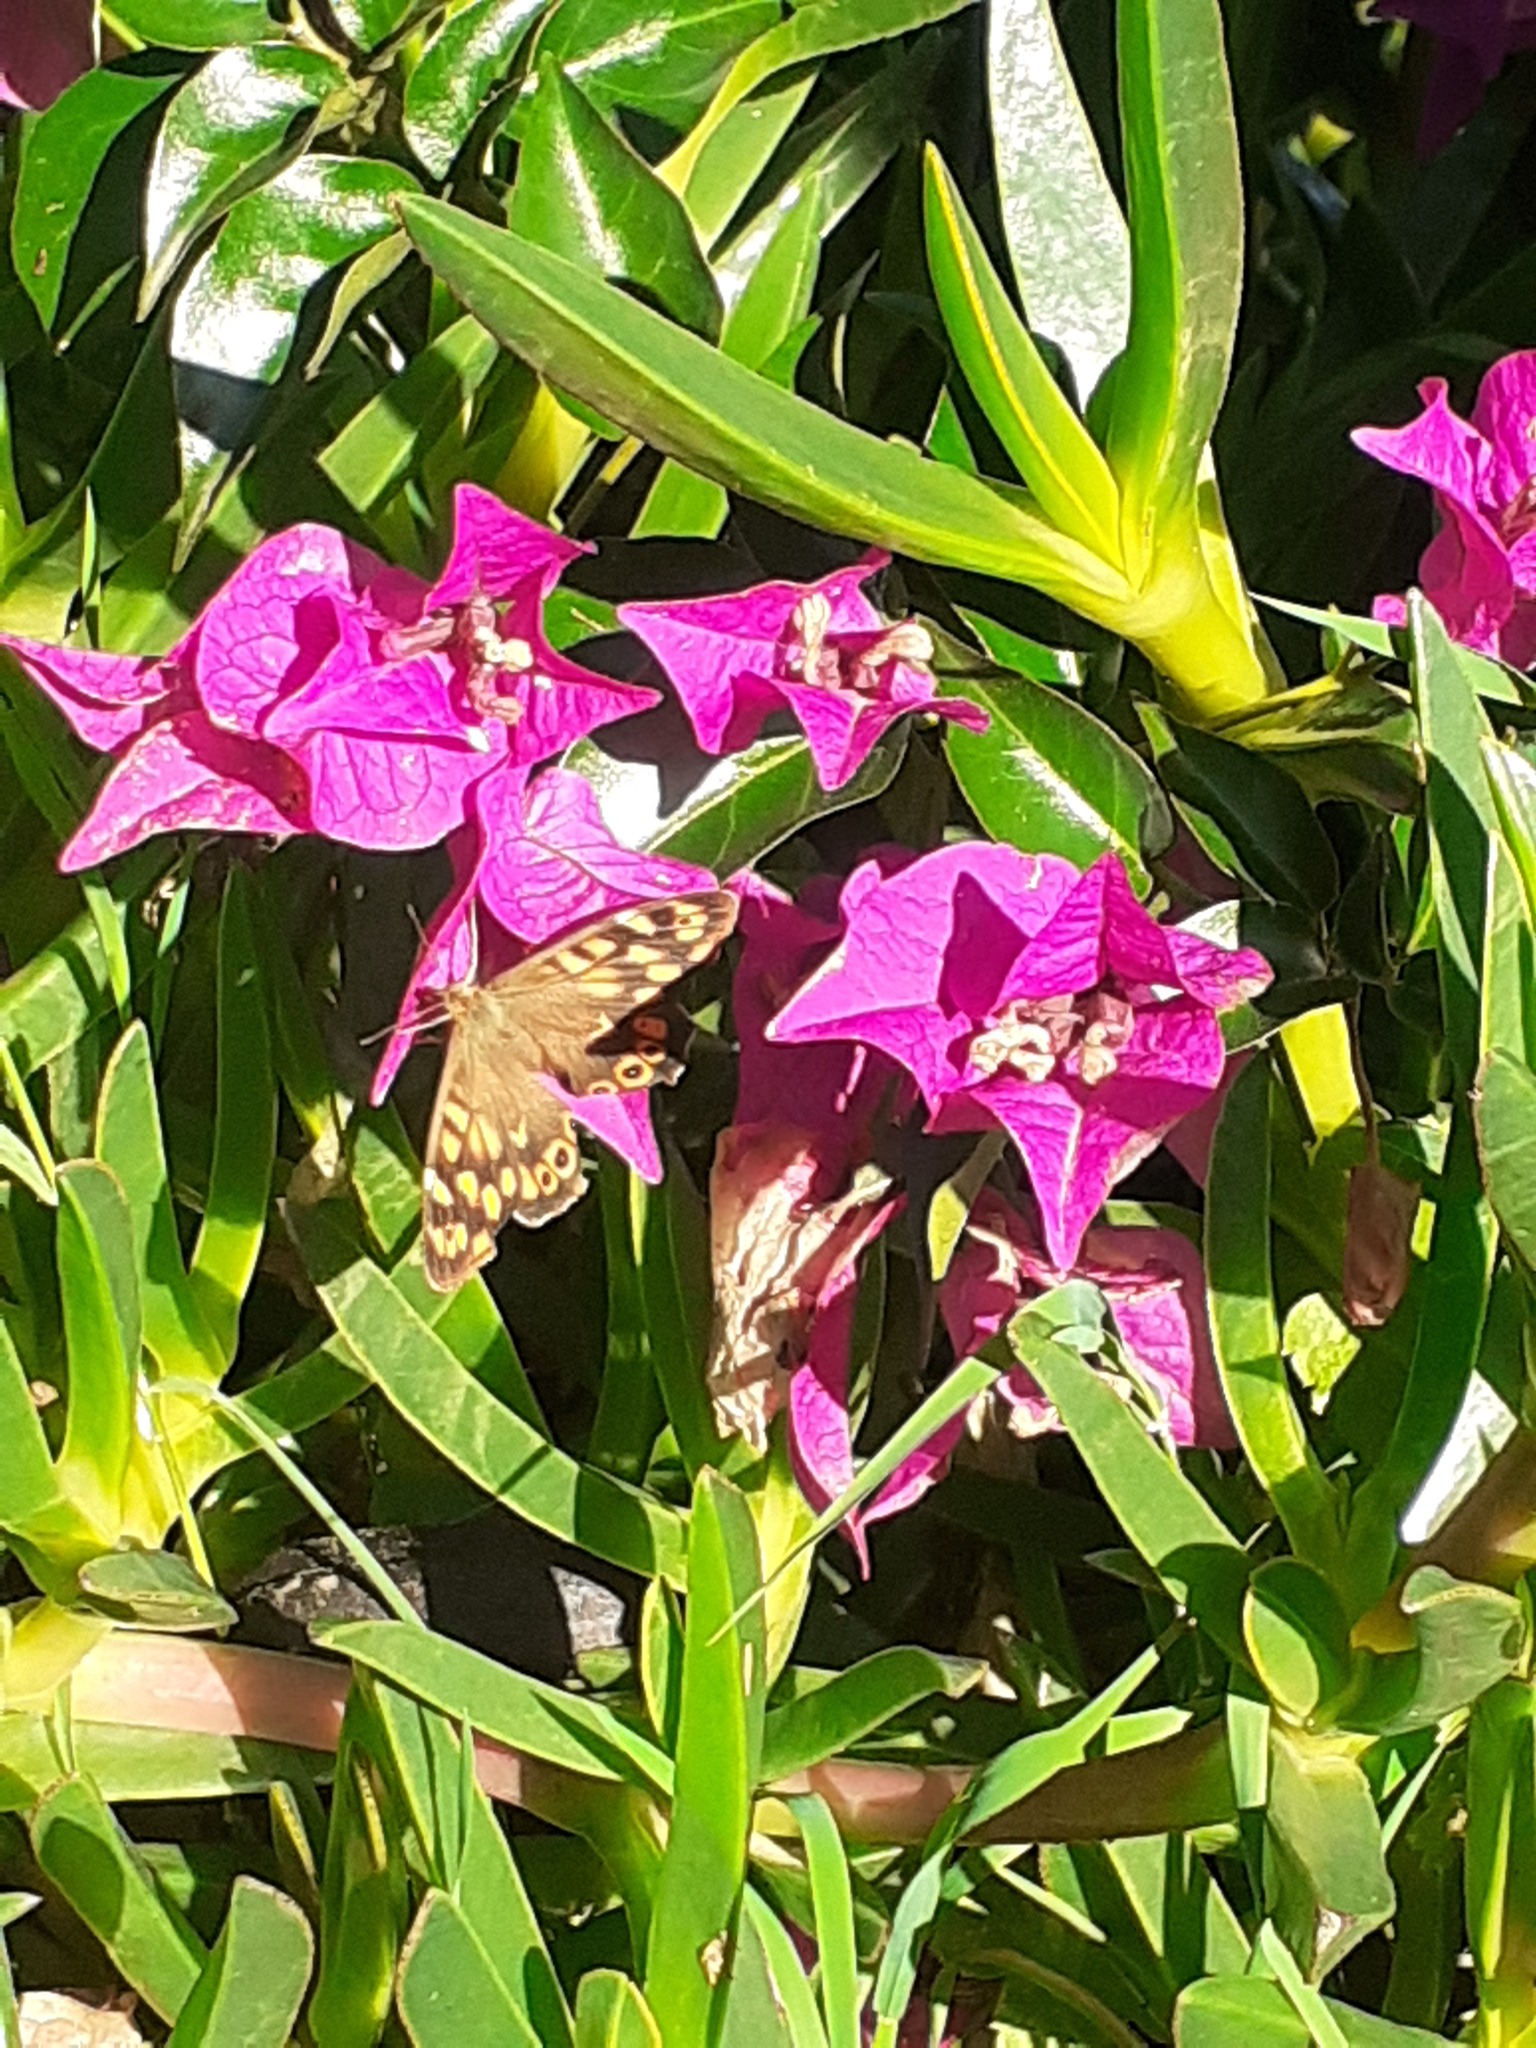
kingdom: Animalia
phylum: Arthropoda
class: Insecta
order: Lepidoptera
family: Nymphalidae
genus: Pararge
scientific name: Pararge aegeria
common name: Speckled wood
